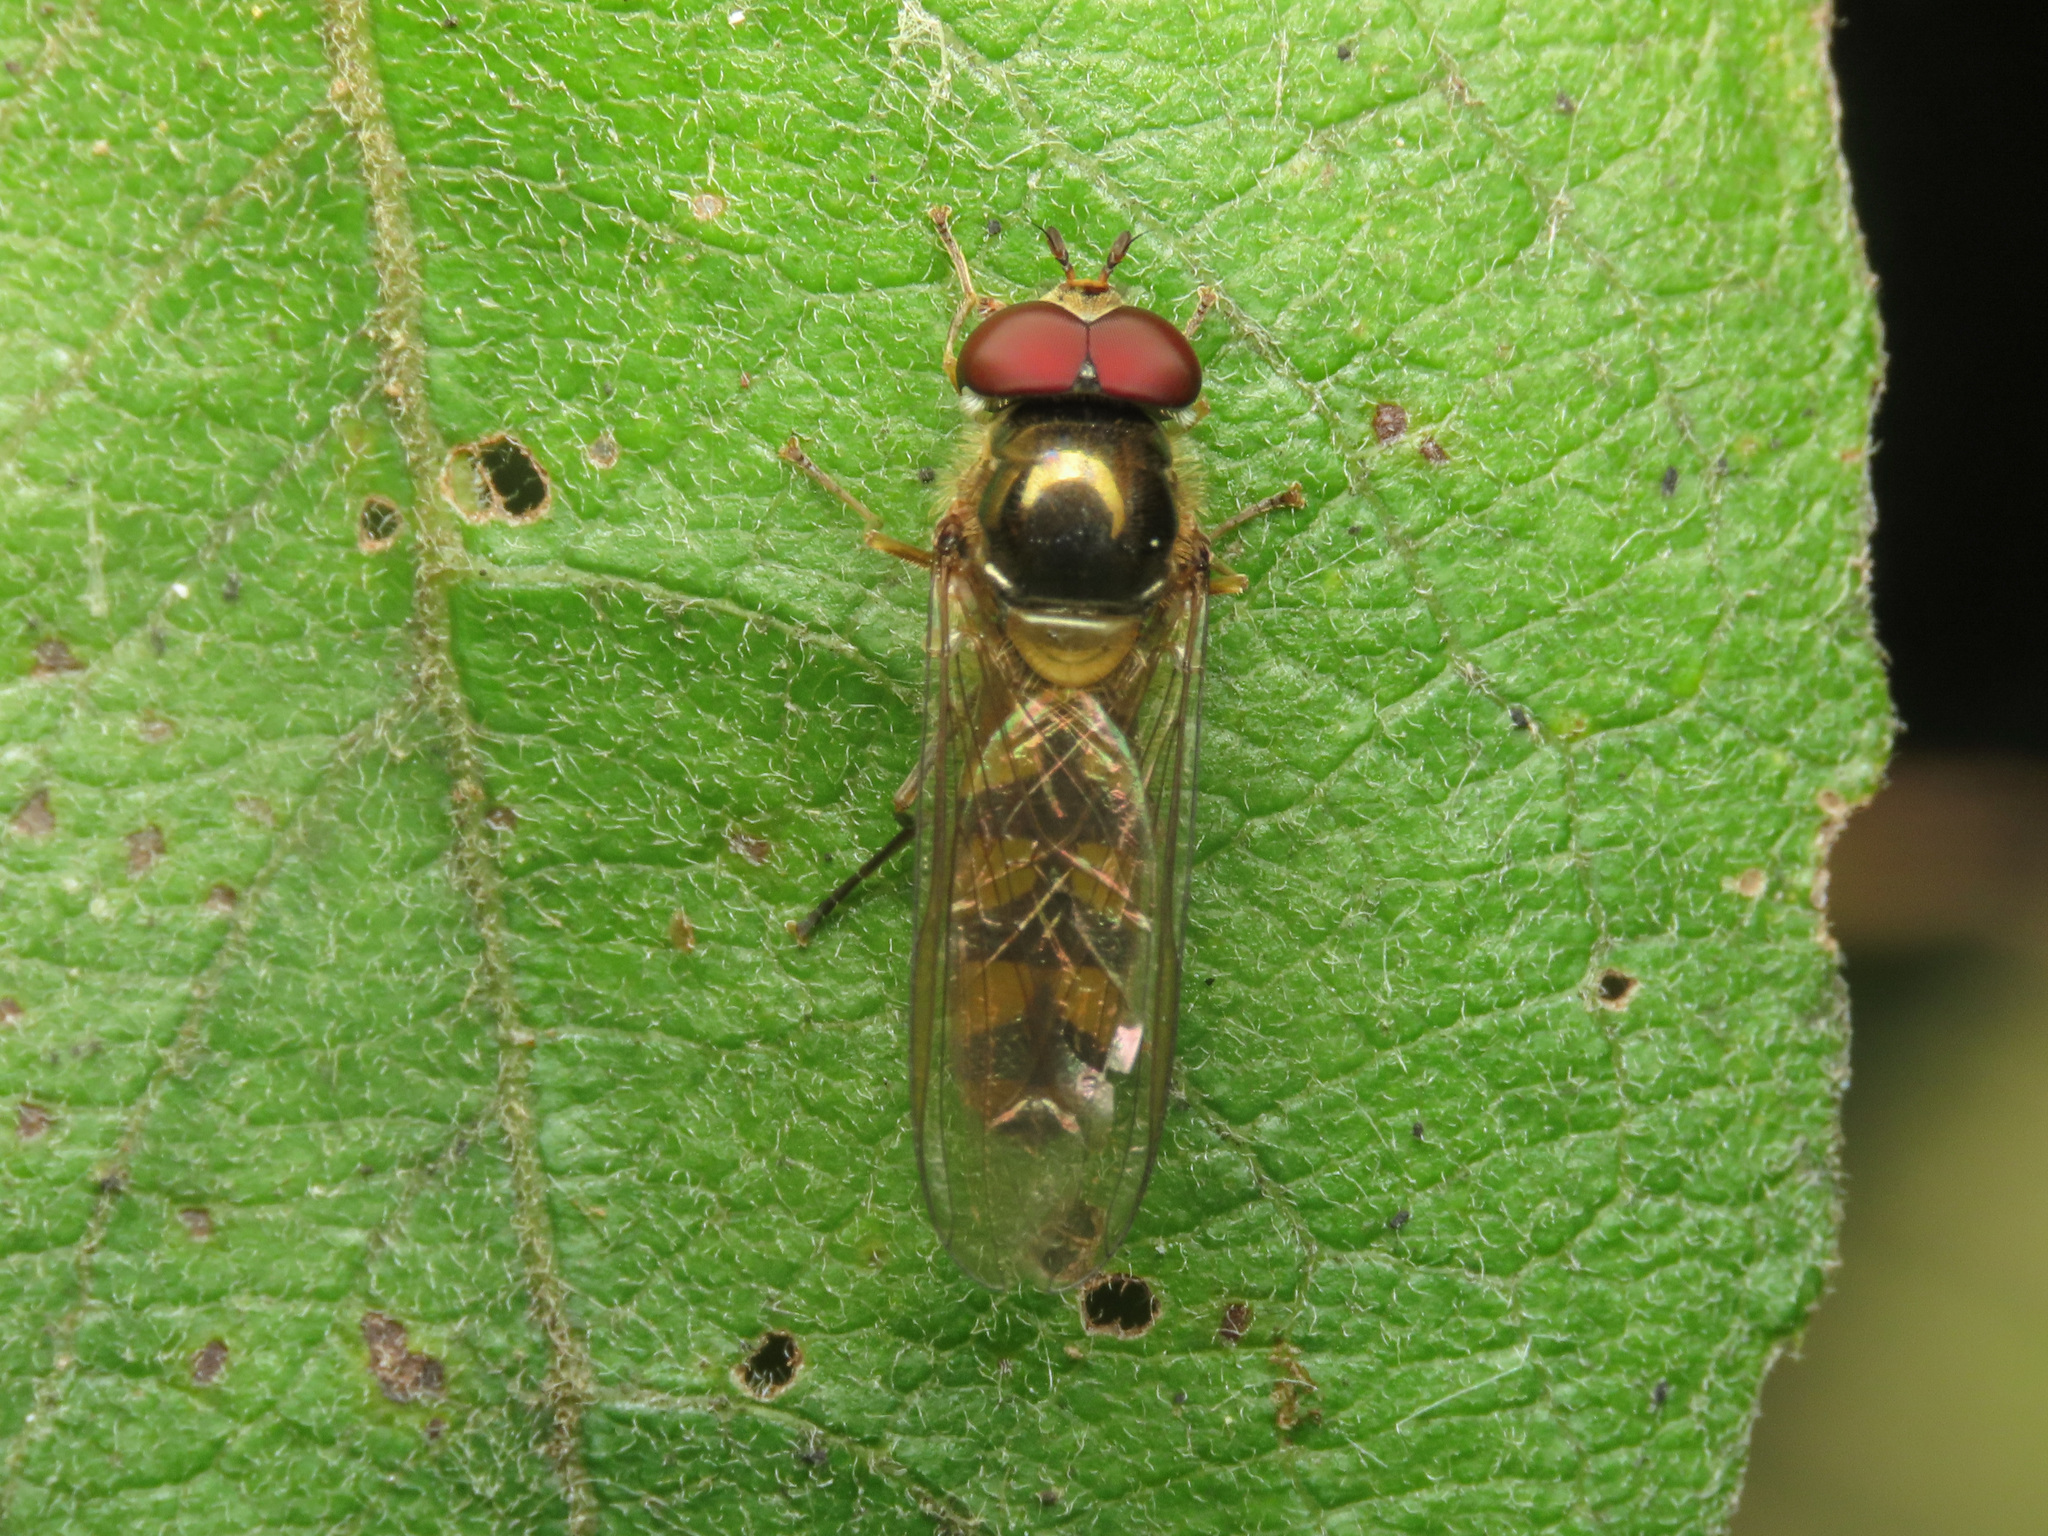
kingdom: Animalia
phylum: Arthropoda
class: Insecta
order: Diptera
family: Syrphidae
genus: Meliscaeva
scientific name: Meliscaeva auricollis
